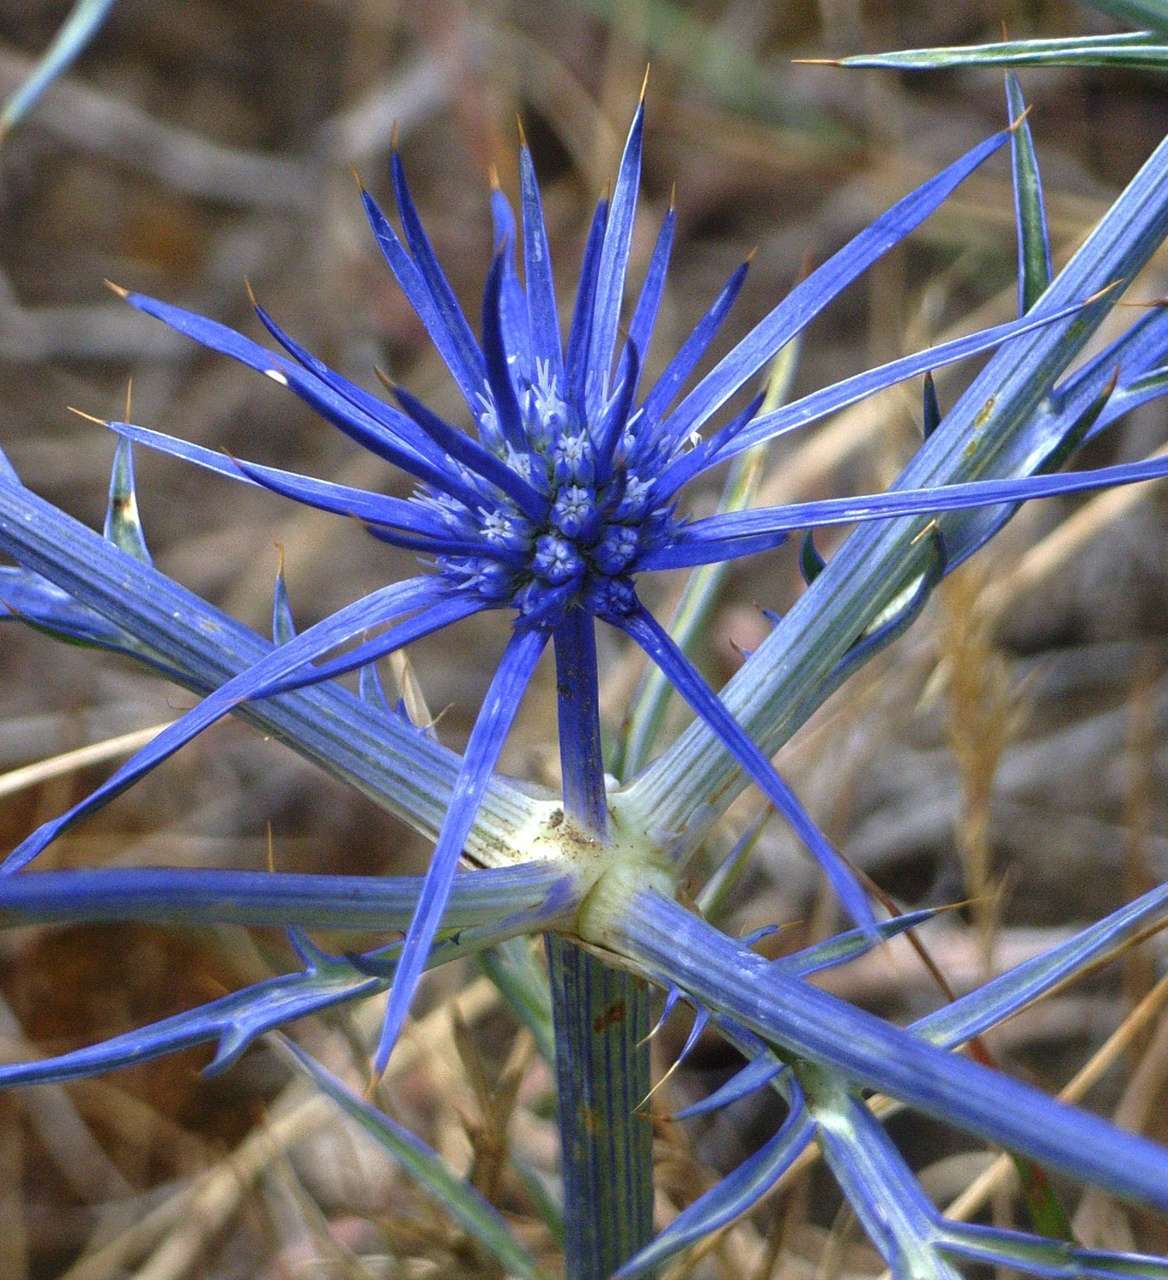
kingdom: Plantae
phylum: Tracheophyta
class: Magnoliopsida
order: Apiales
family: Apiaceae
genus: Eryngium
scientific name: Eryngium ovinum
